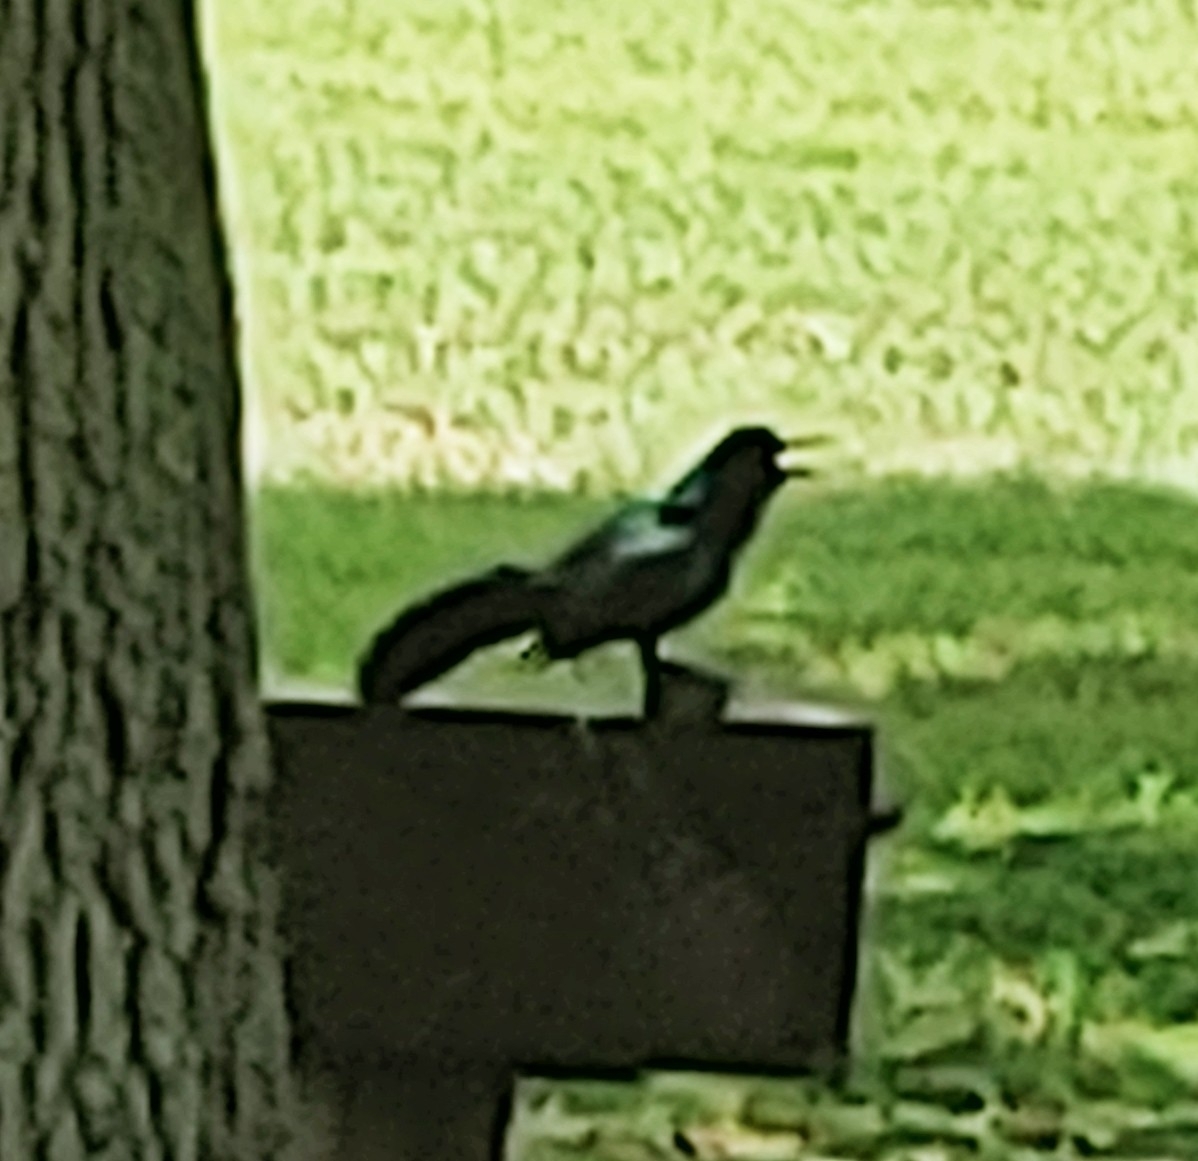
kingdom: Animalia
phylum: Chordata
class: Aves
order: Passeriformes
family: Icteridae
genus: Quiscalus
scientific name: Quiscalus major
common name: Boat-tailed grackle
